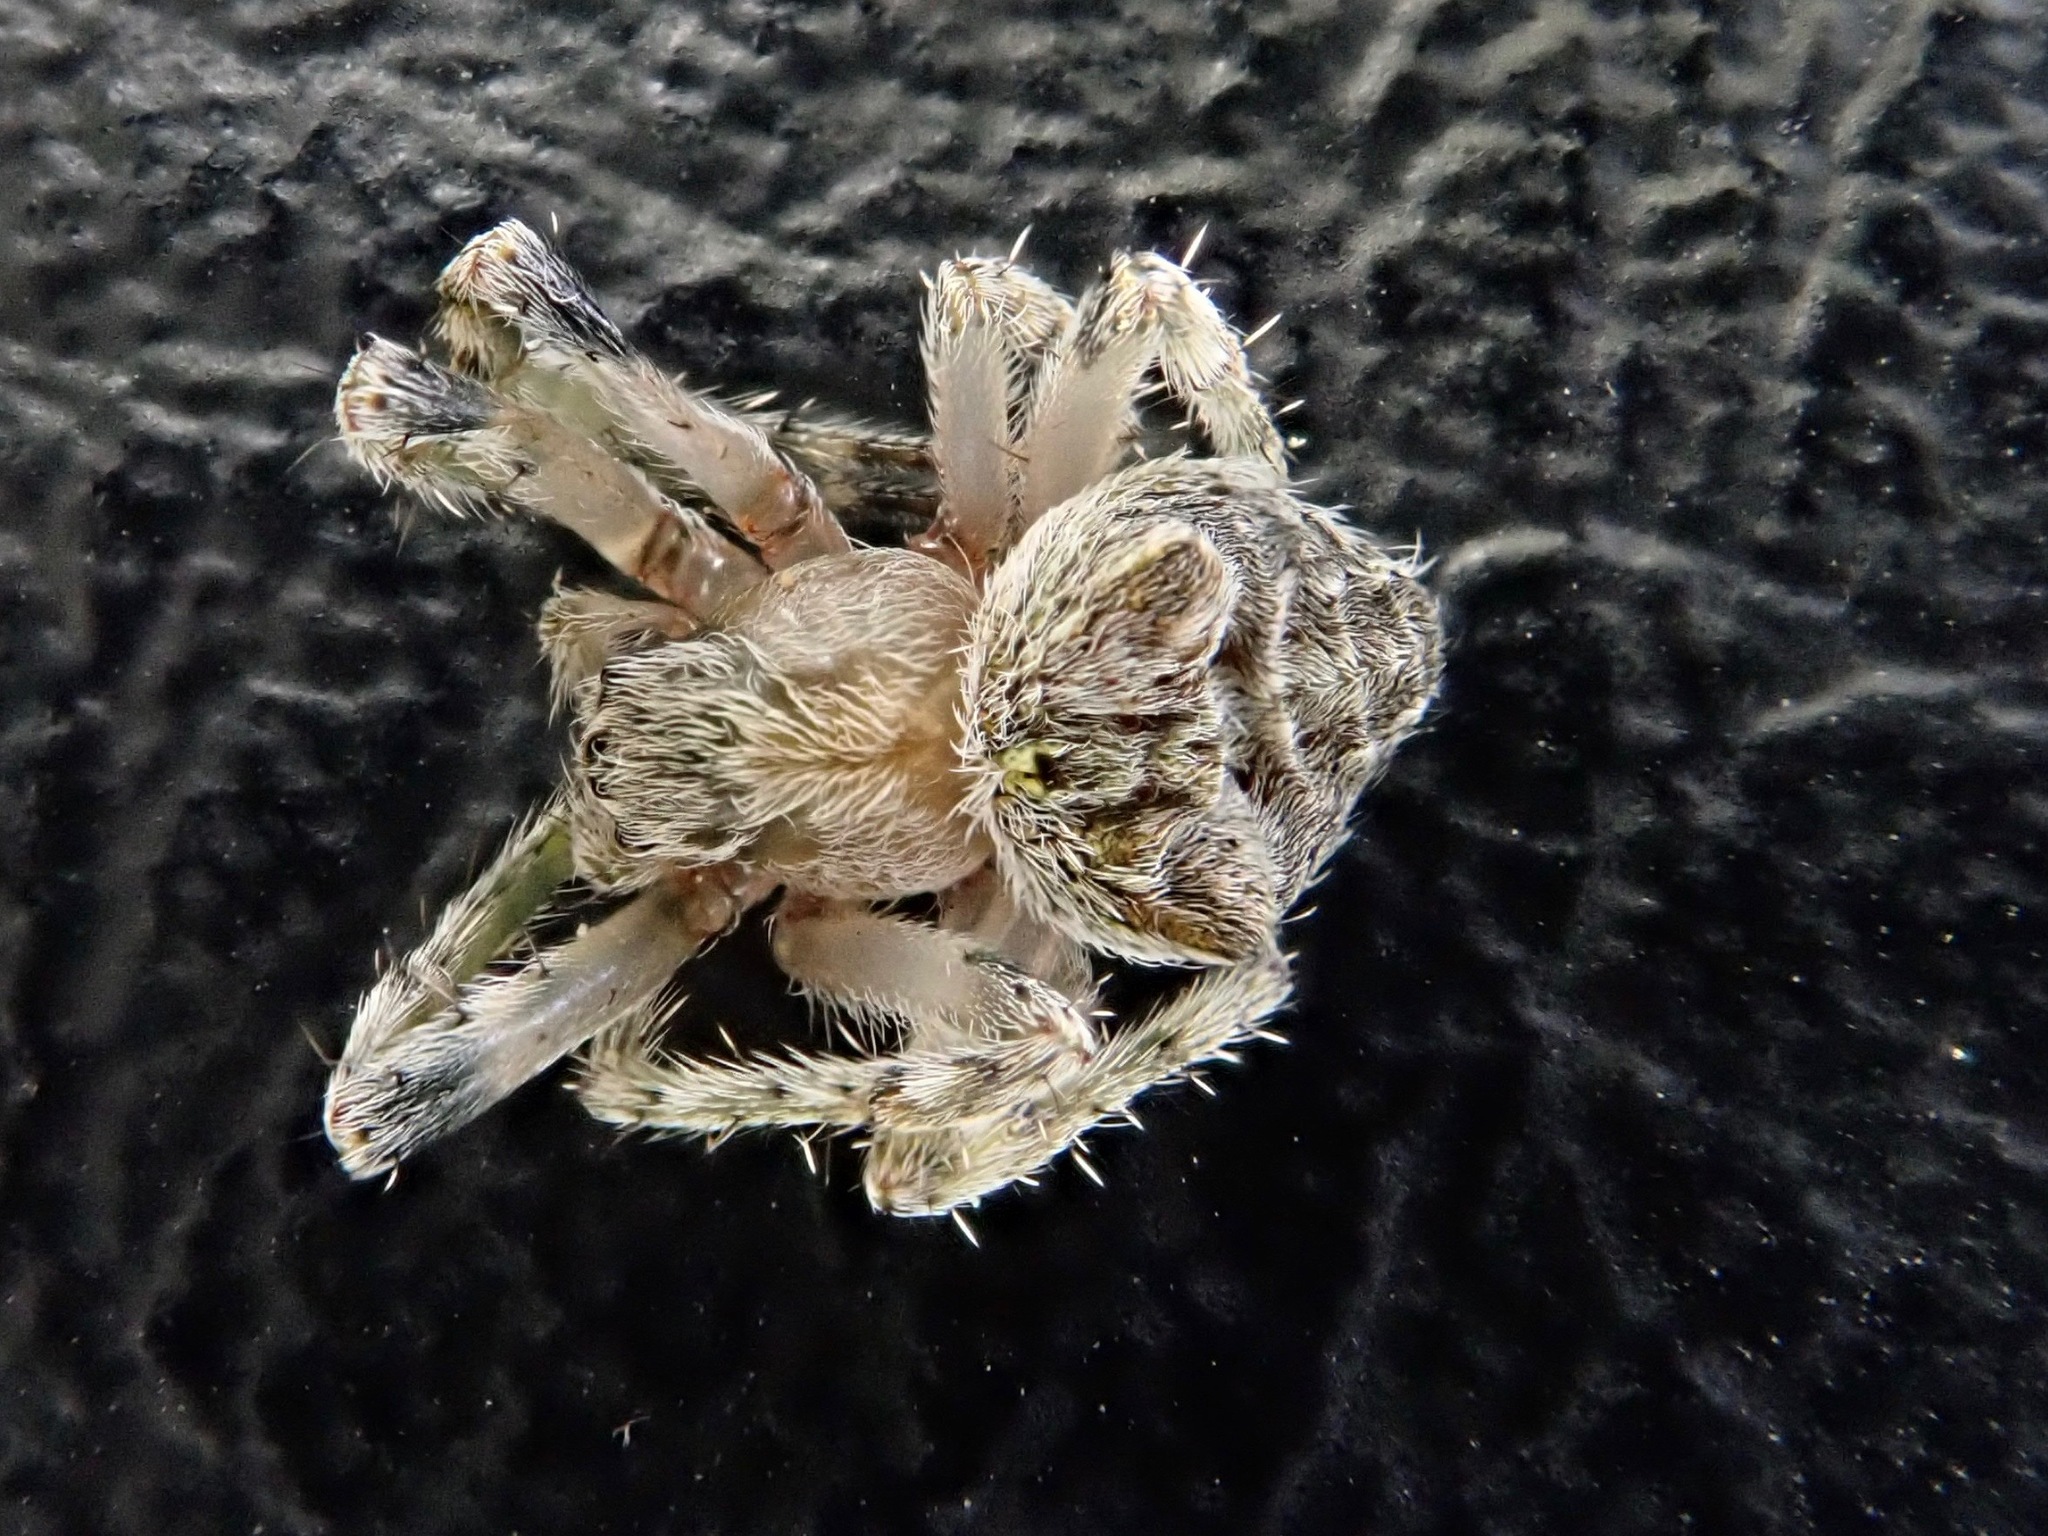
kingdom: Animalia
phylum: Arthropoda
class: Arachnida
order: Araneae
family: Araneidae
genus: Eriophora
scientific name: Eriophora pustulosa
